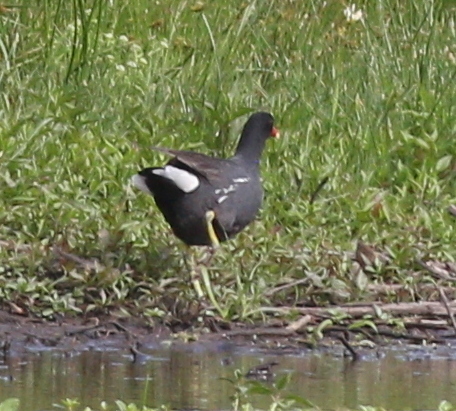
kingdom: Animalia
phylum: Chordata
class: Aves
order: Gruiformes
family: Rallidae
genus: Gallinula
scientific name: Gallinula chloropus
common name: Common moorhen
